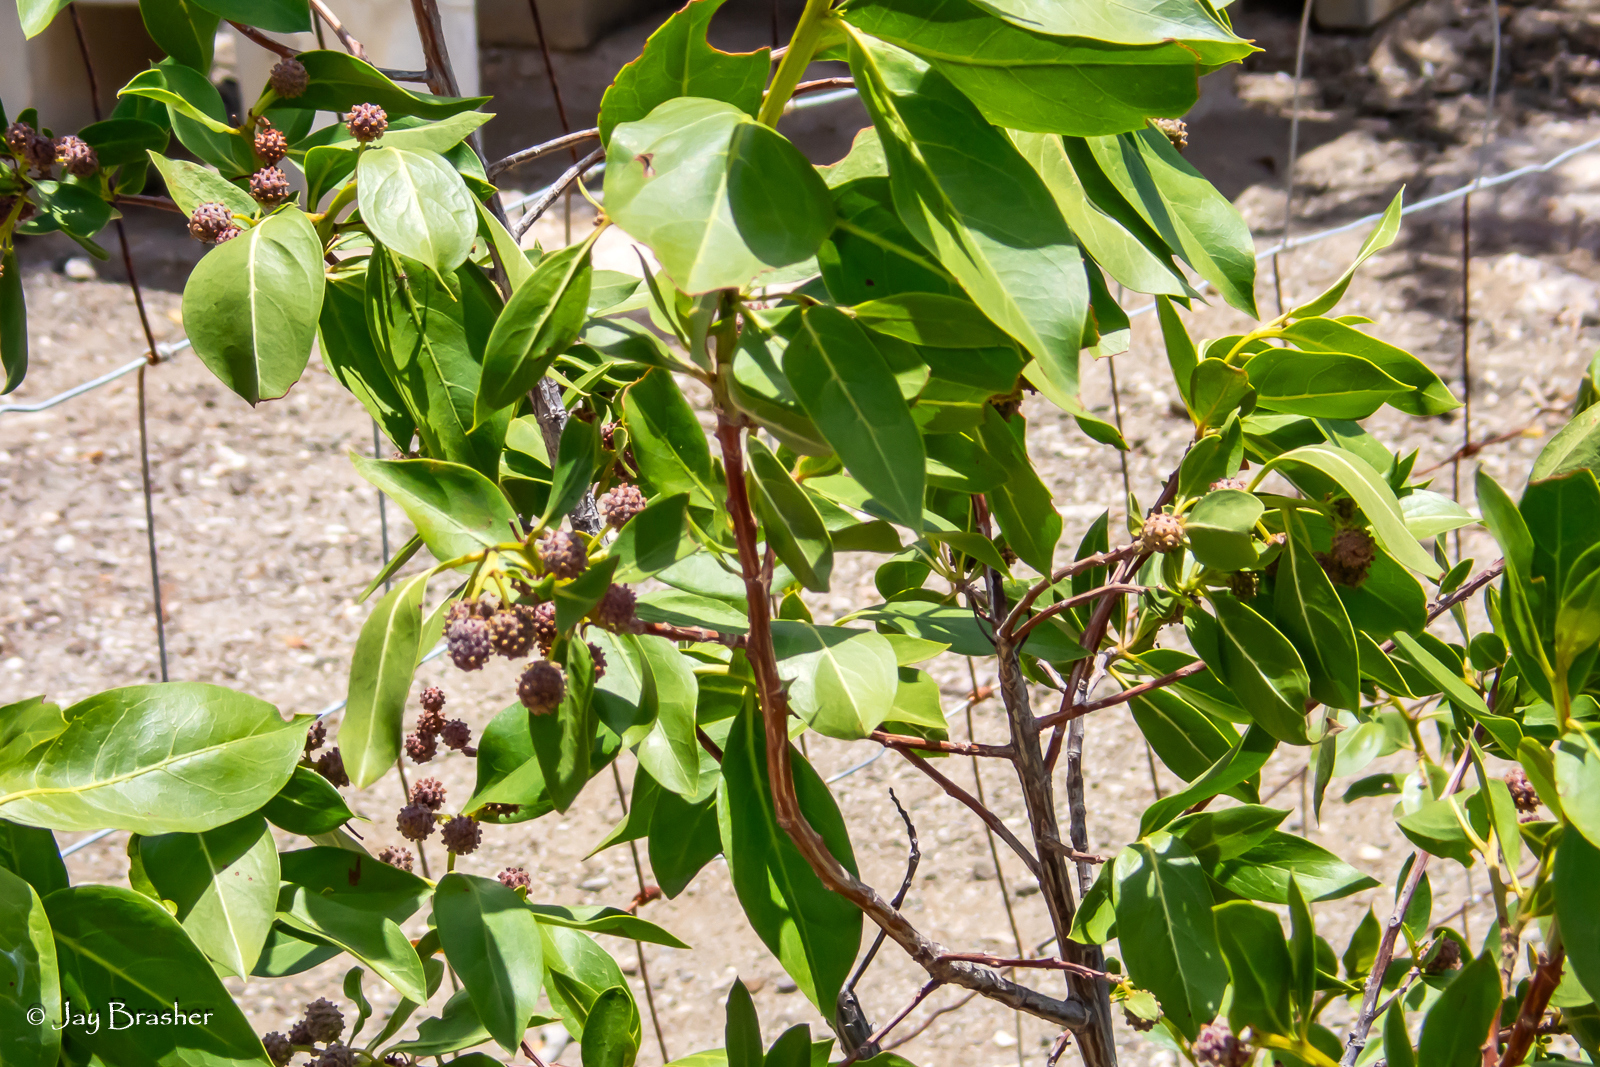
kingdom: Plantae
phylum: Tracheophyta
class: Magnoliopsida
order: Myrtales
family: Combretaceae
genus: Conocarpus
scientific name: Conocarpus erectus
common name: Button mangrove
